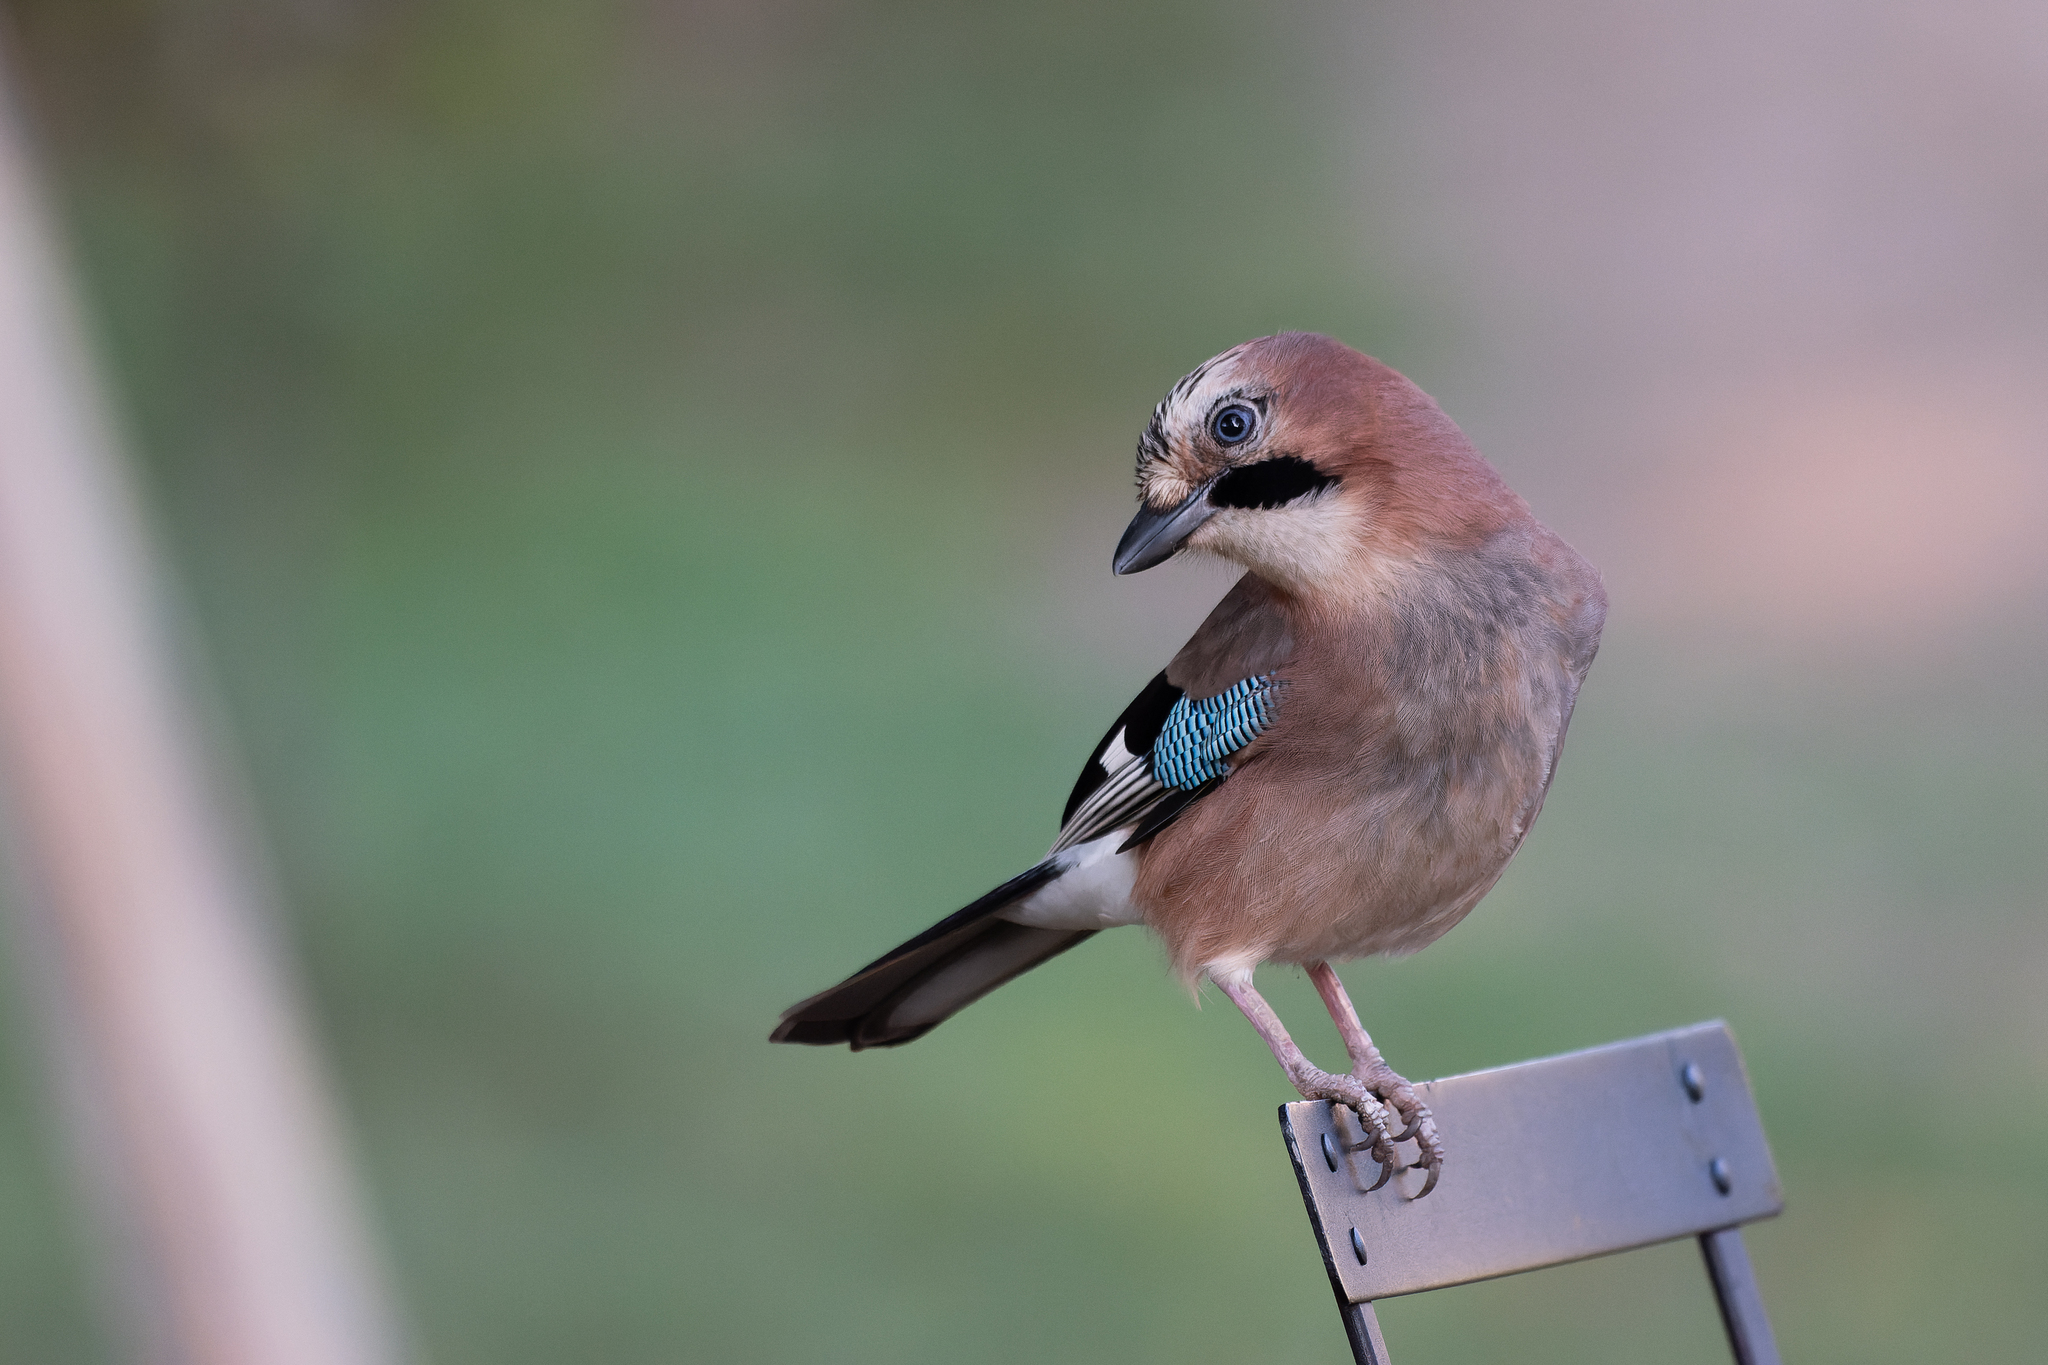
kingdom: Animalia
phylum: Chordata
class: Aves
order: Passeriformes
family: Corvidae
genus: Garrulus
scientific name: Garrulus glandarius
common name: Eurasian jay
